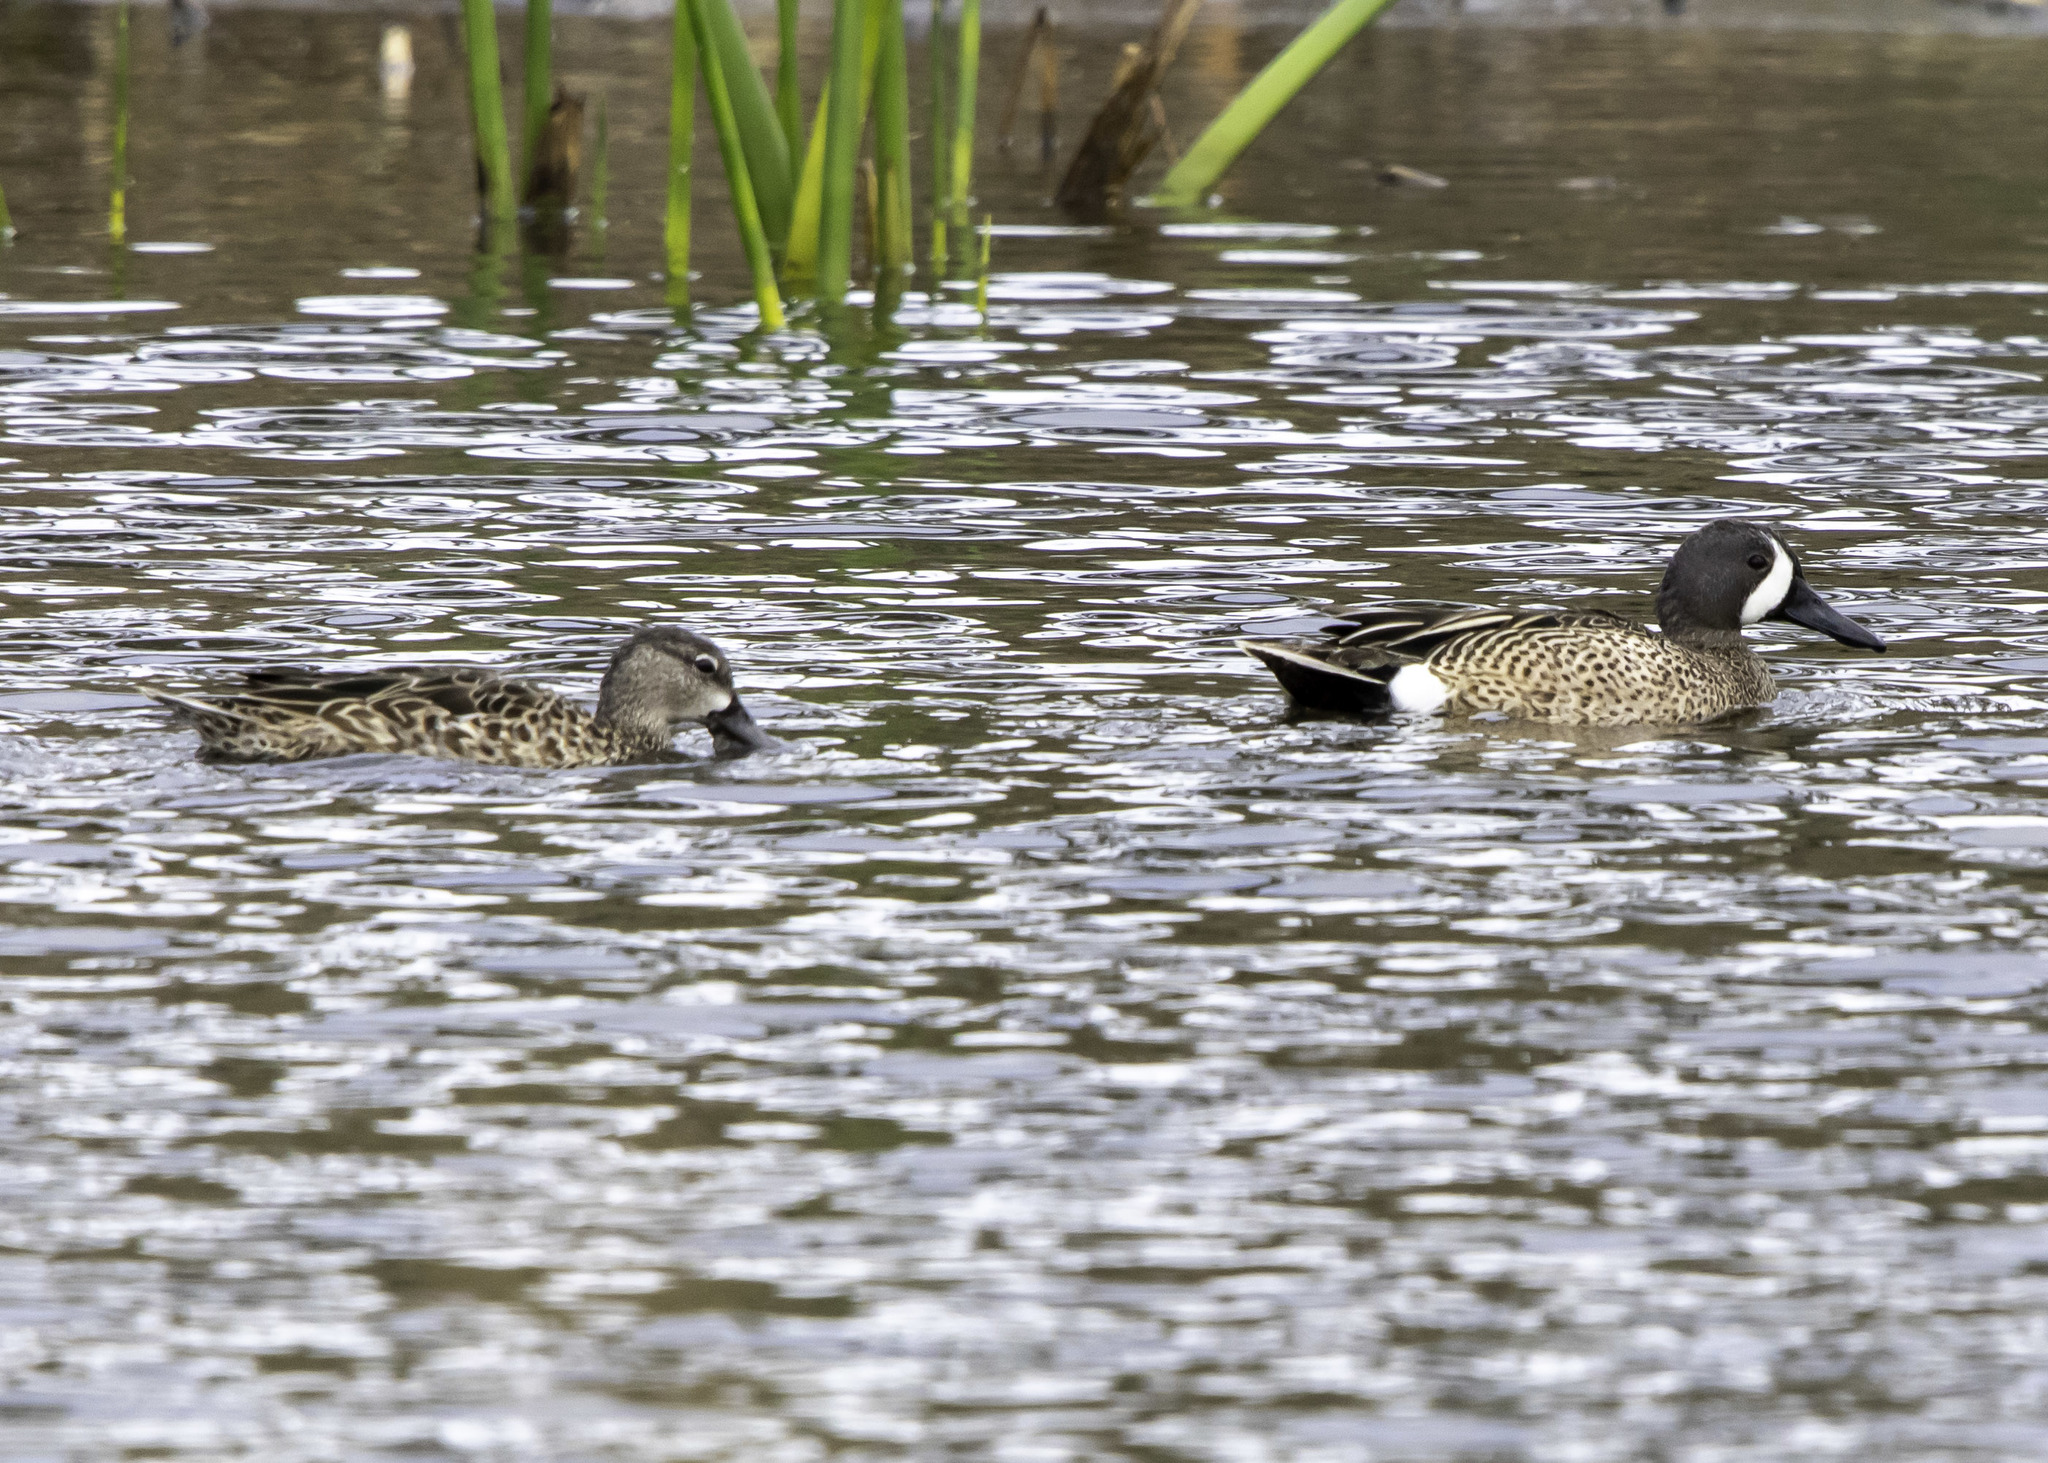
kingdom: Animalia
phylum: Chordata
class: Aves
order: Anseriformes
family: Anatidae
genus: Spatula
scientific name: Spatula discors
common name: Blue-winged teal
